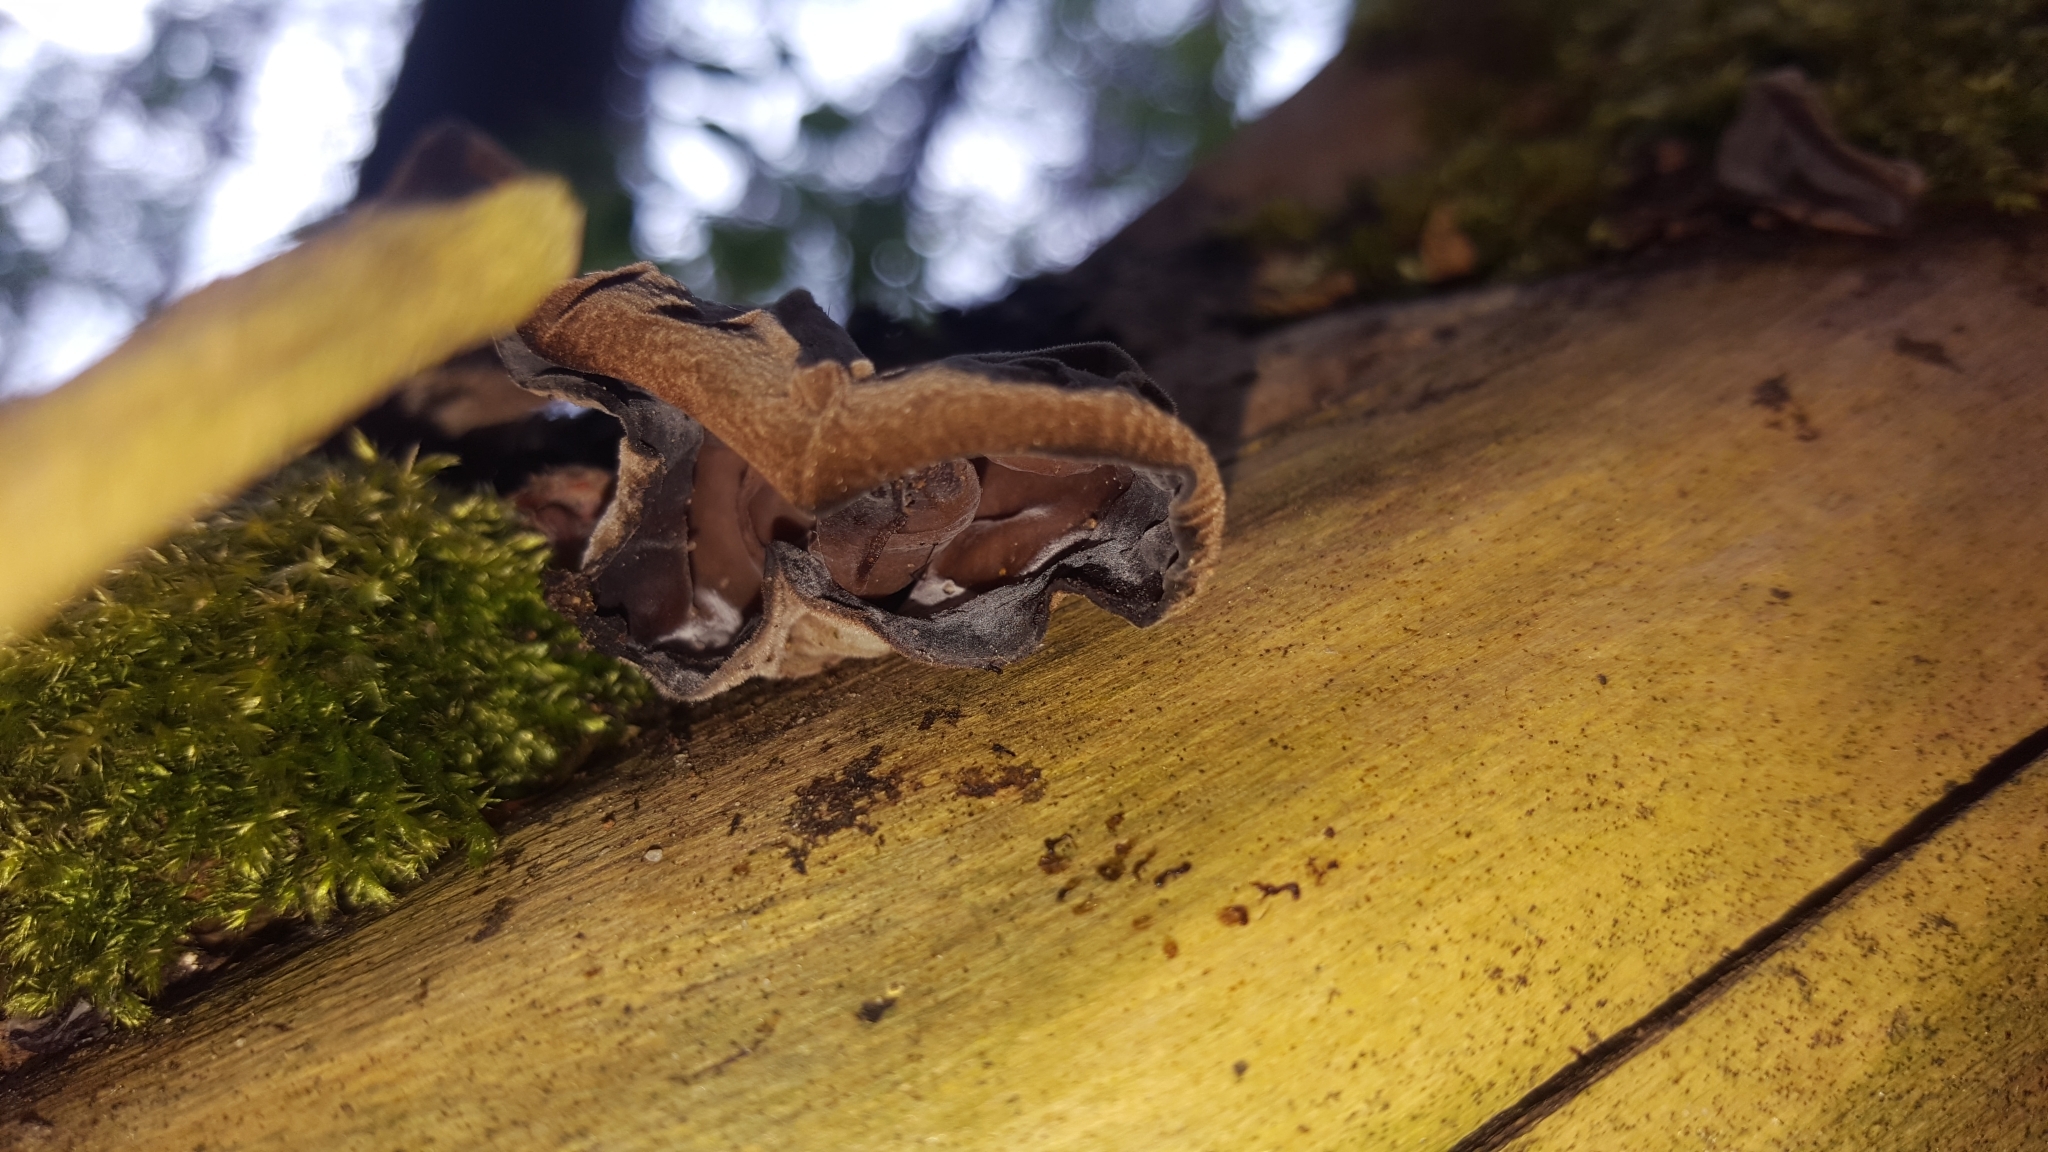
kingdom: Fungi
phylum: Basidiomycota
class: Agaricomycetes
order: Auriculariales
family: Auriculariaceae
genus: Auricularia
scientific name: Auricularia auricula-judae
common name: Jelly ear
